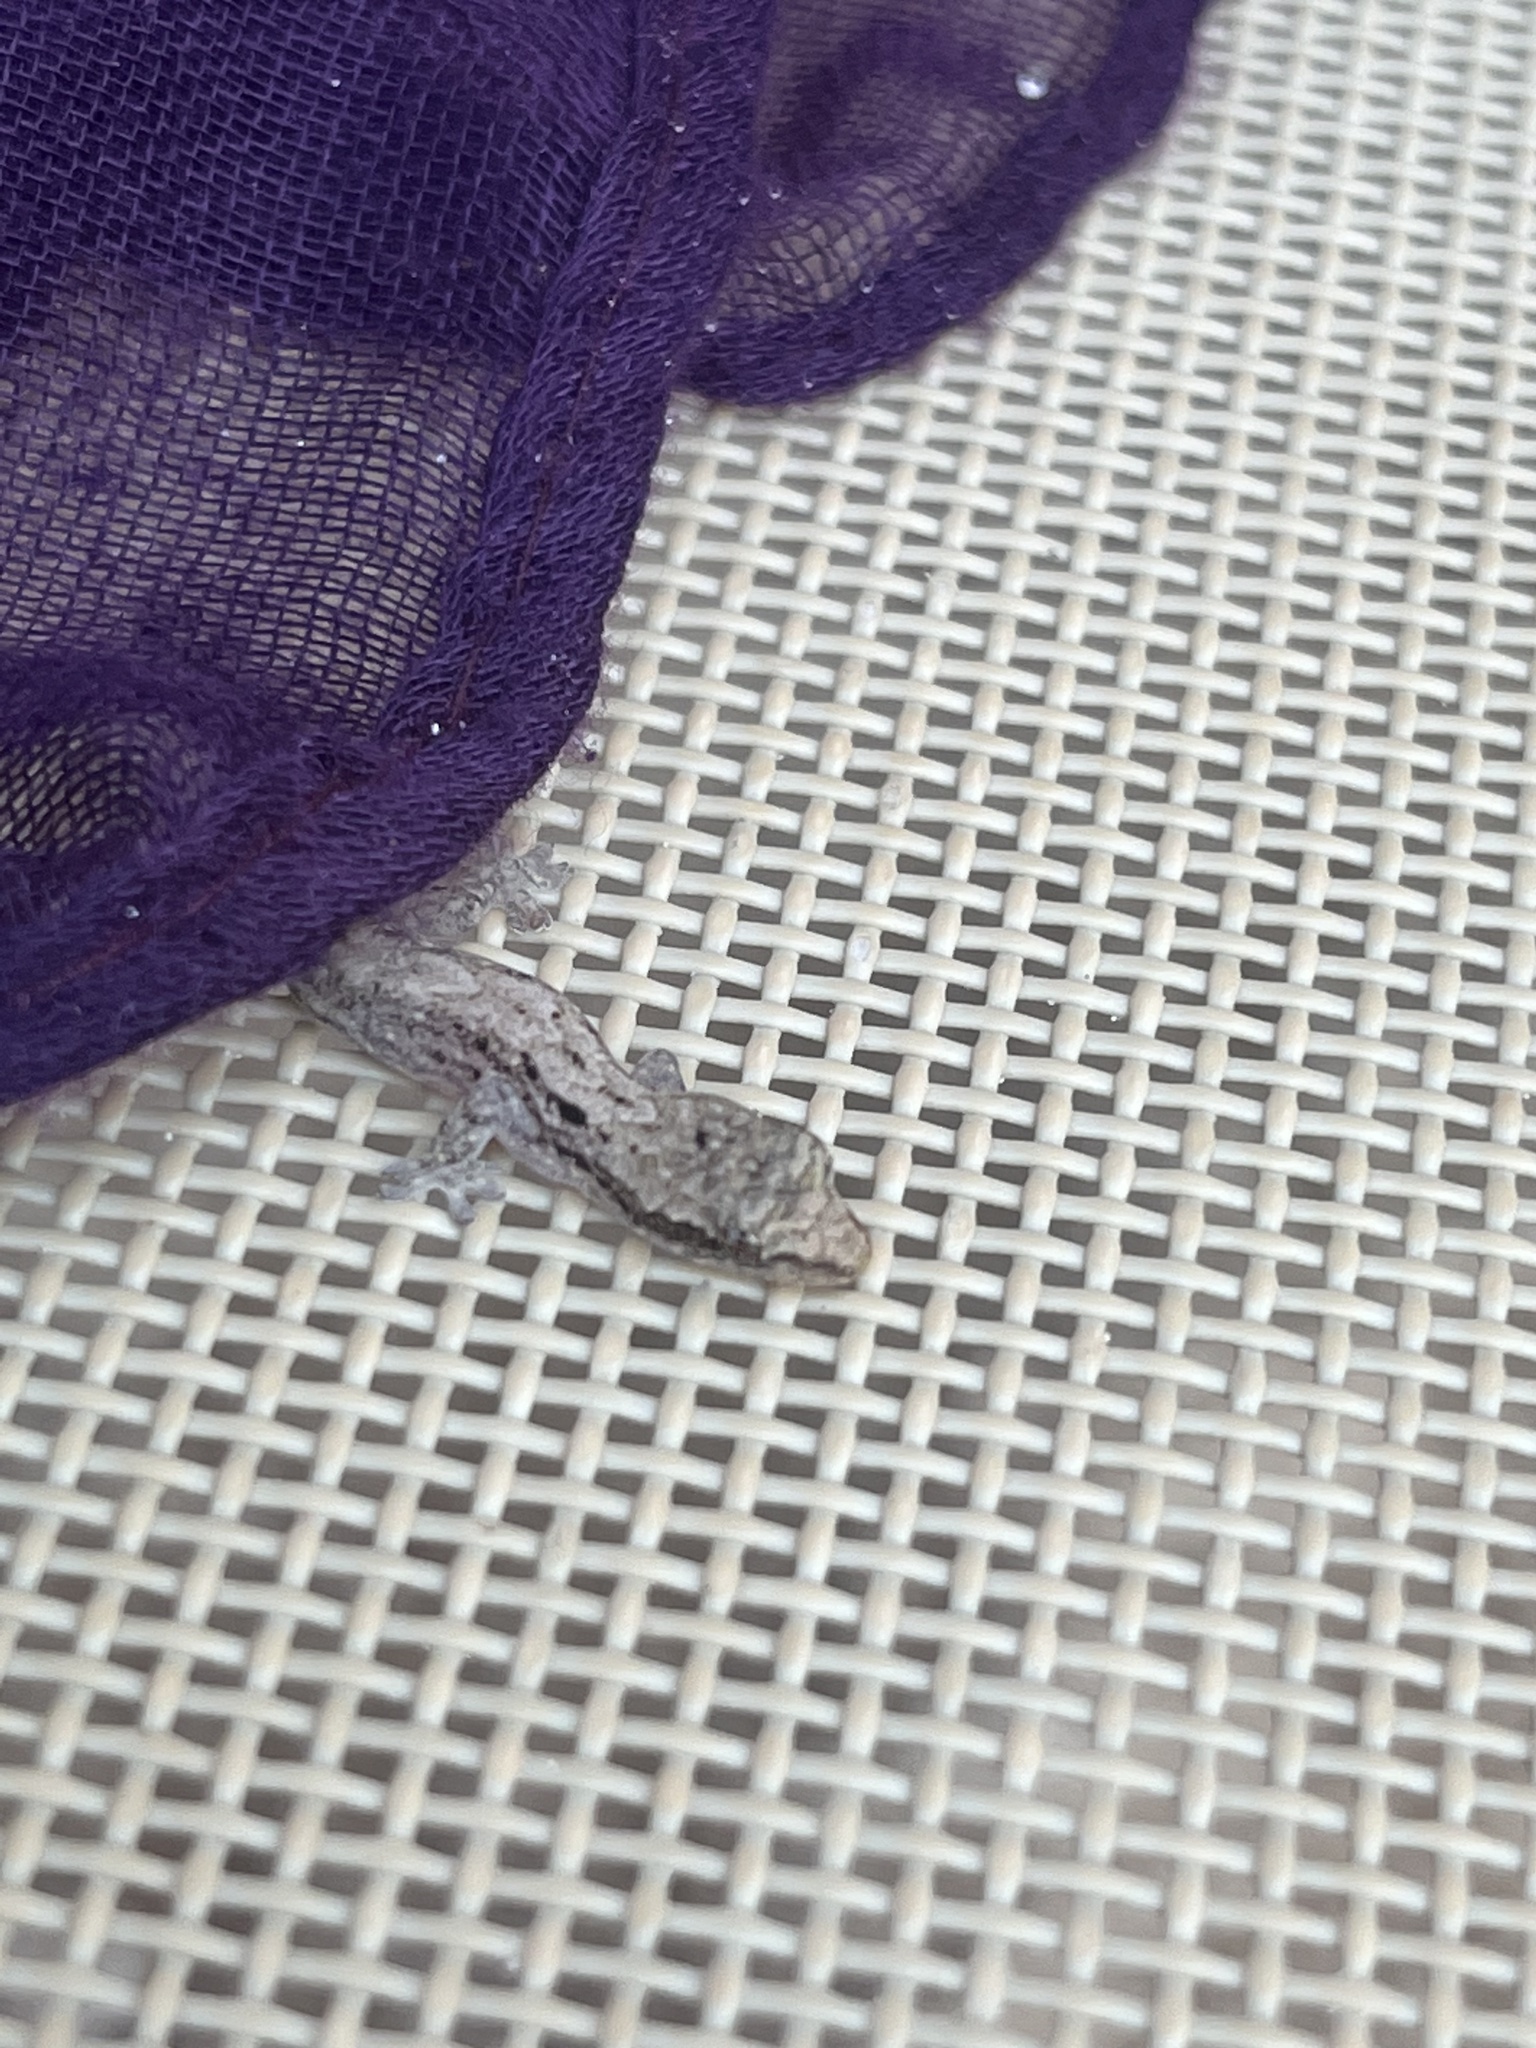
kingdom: Animalia
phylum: Chordata
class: Squamata
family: Gekkonidae
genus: Lepidodactylus
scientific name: Lepidodactylus lugubris
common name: Mourning gecko
